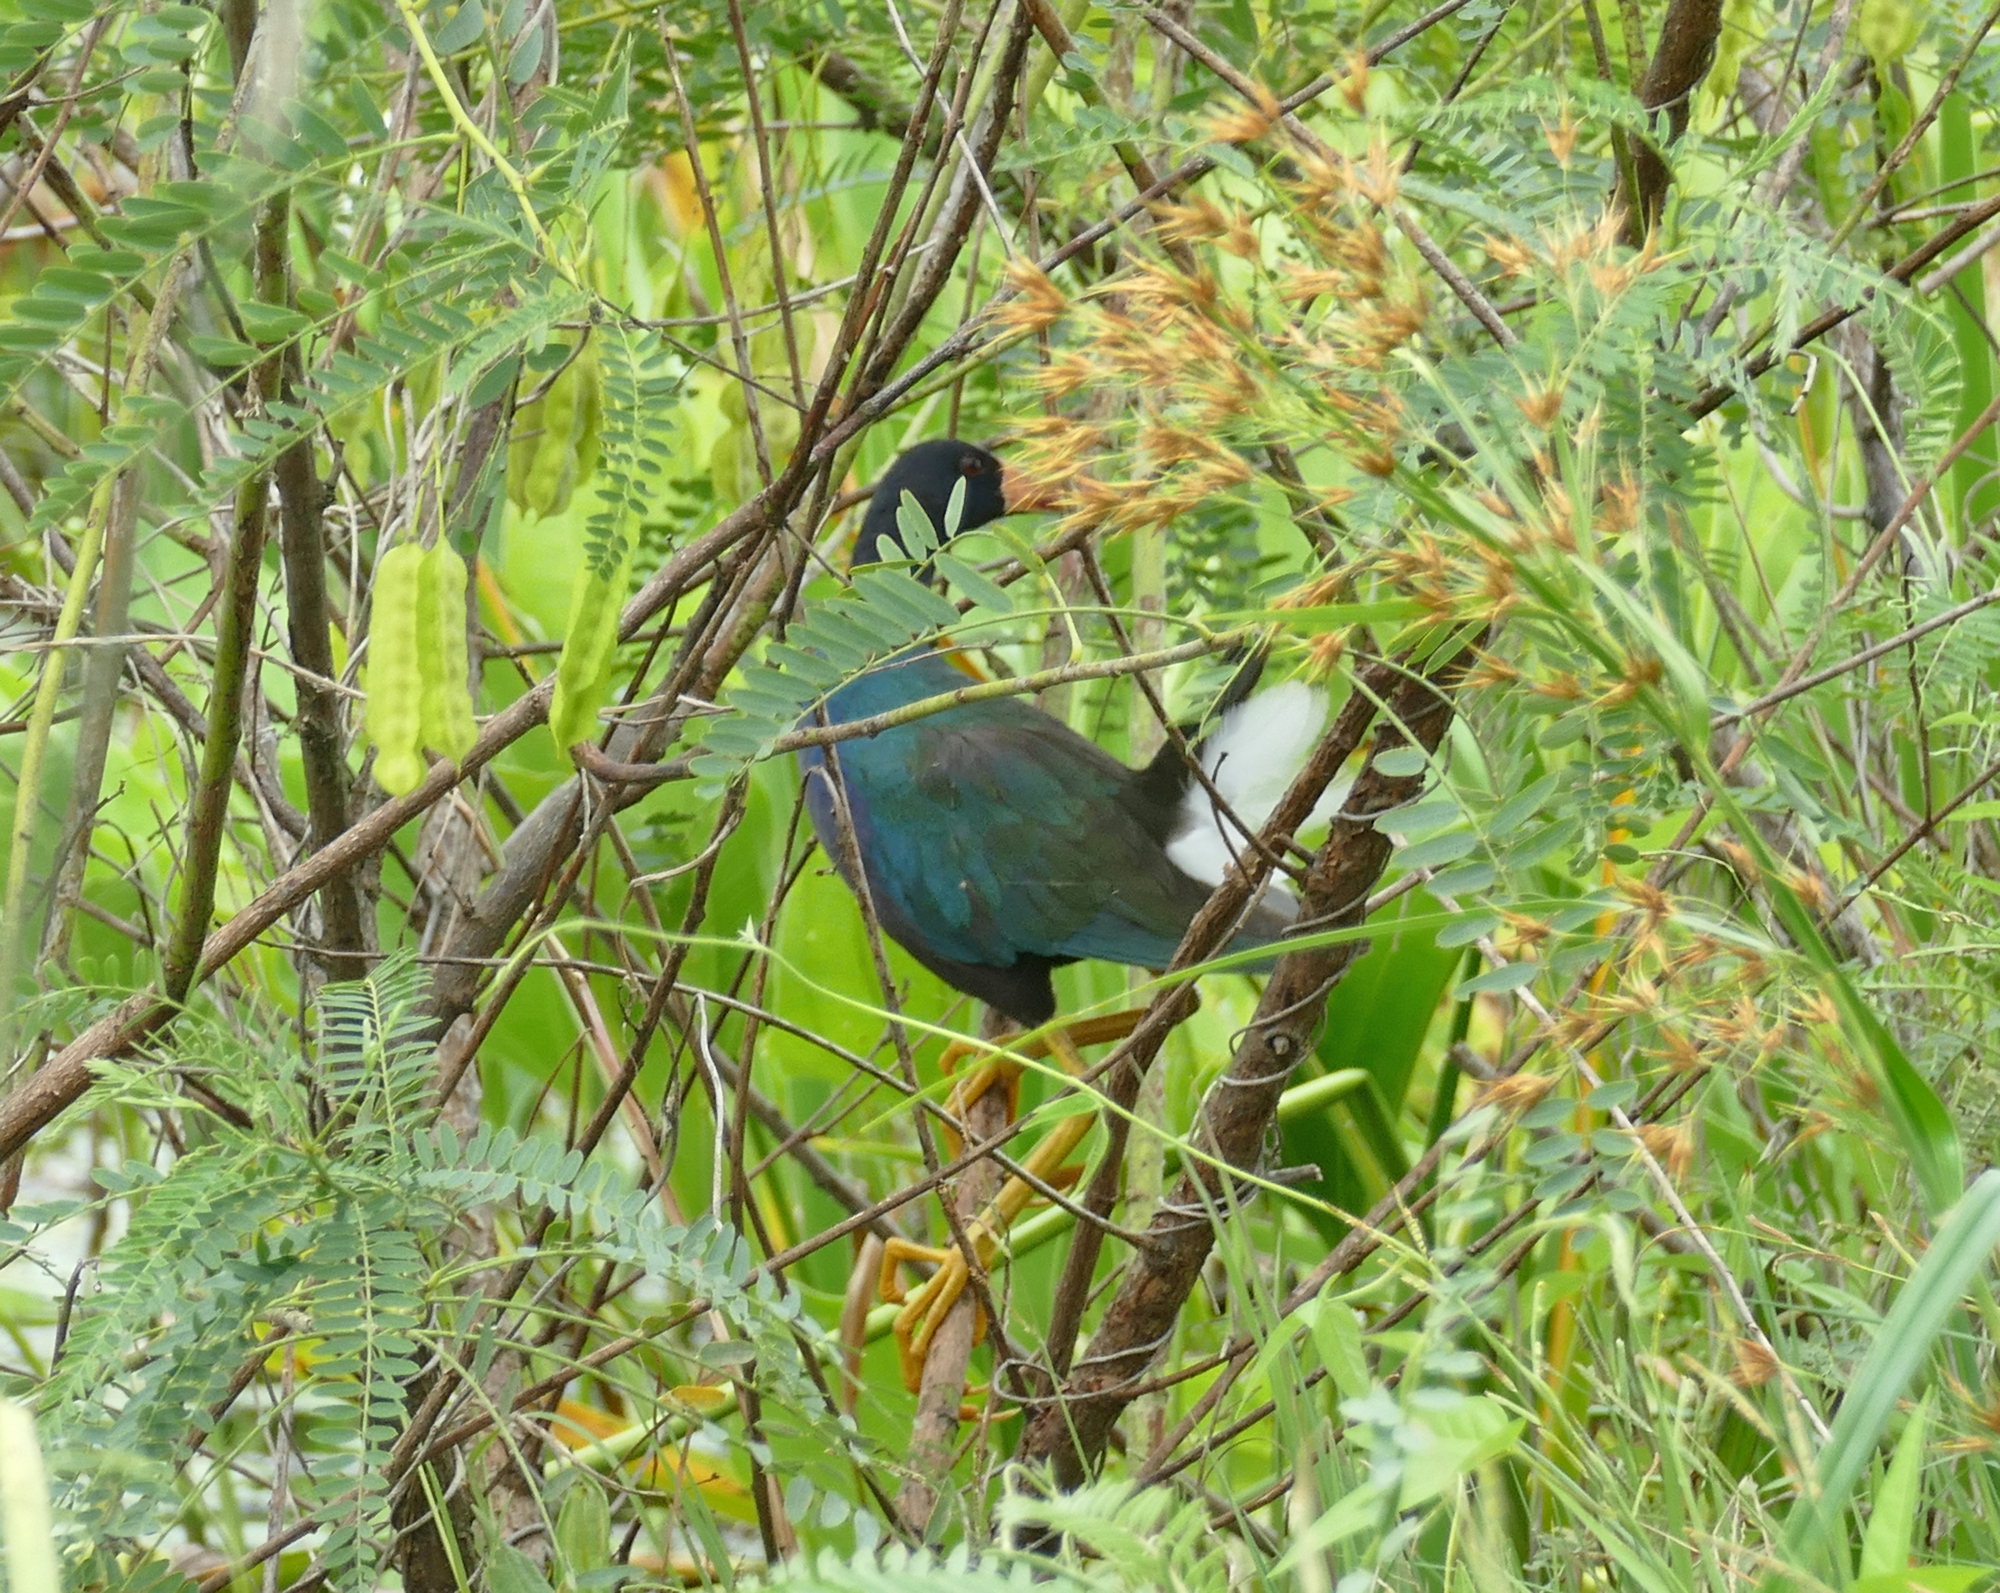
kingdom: Animalia
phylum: Chordata
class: Aves
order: Gruiformes
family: Rallidae
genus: Porphyrio
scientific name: Porphyrio martinica
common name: Purple gallinule
